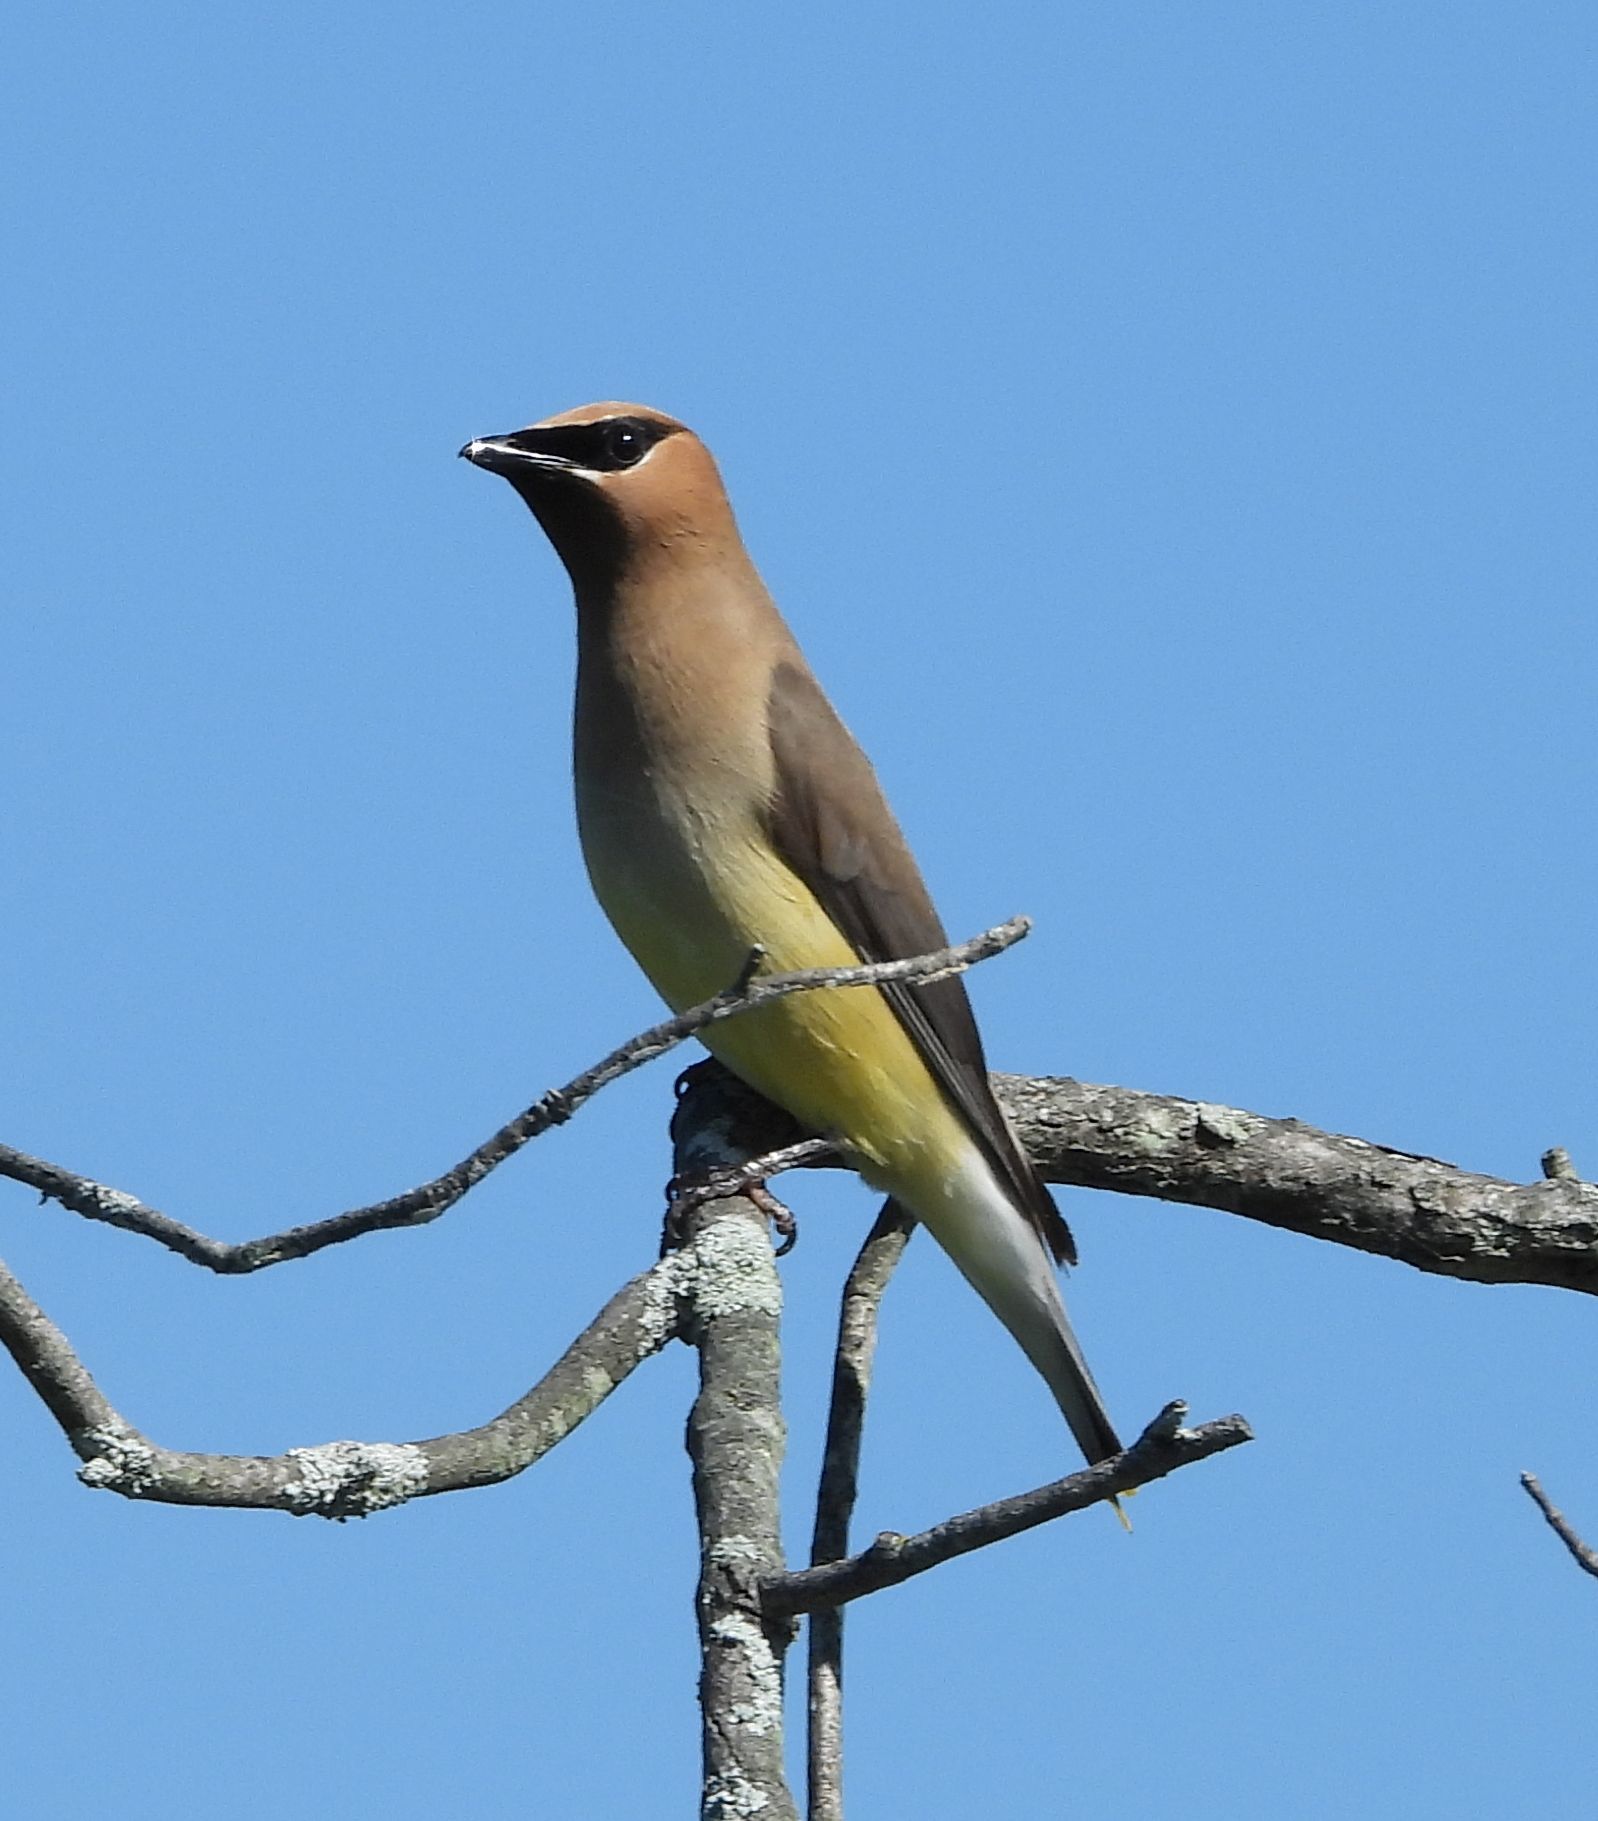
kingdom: Animalia
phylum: Chordata
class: Aves
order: Passeriformes
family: Bombycillidae
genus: Bombycilla
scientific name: Bombycilla cedrorum
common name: Cedar waxwing
